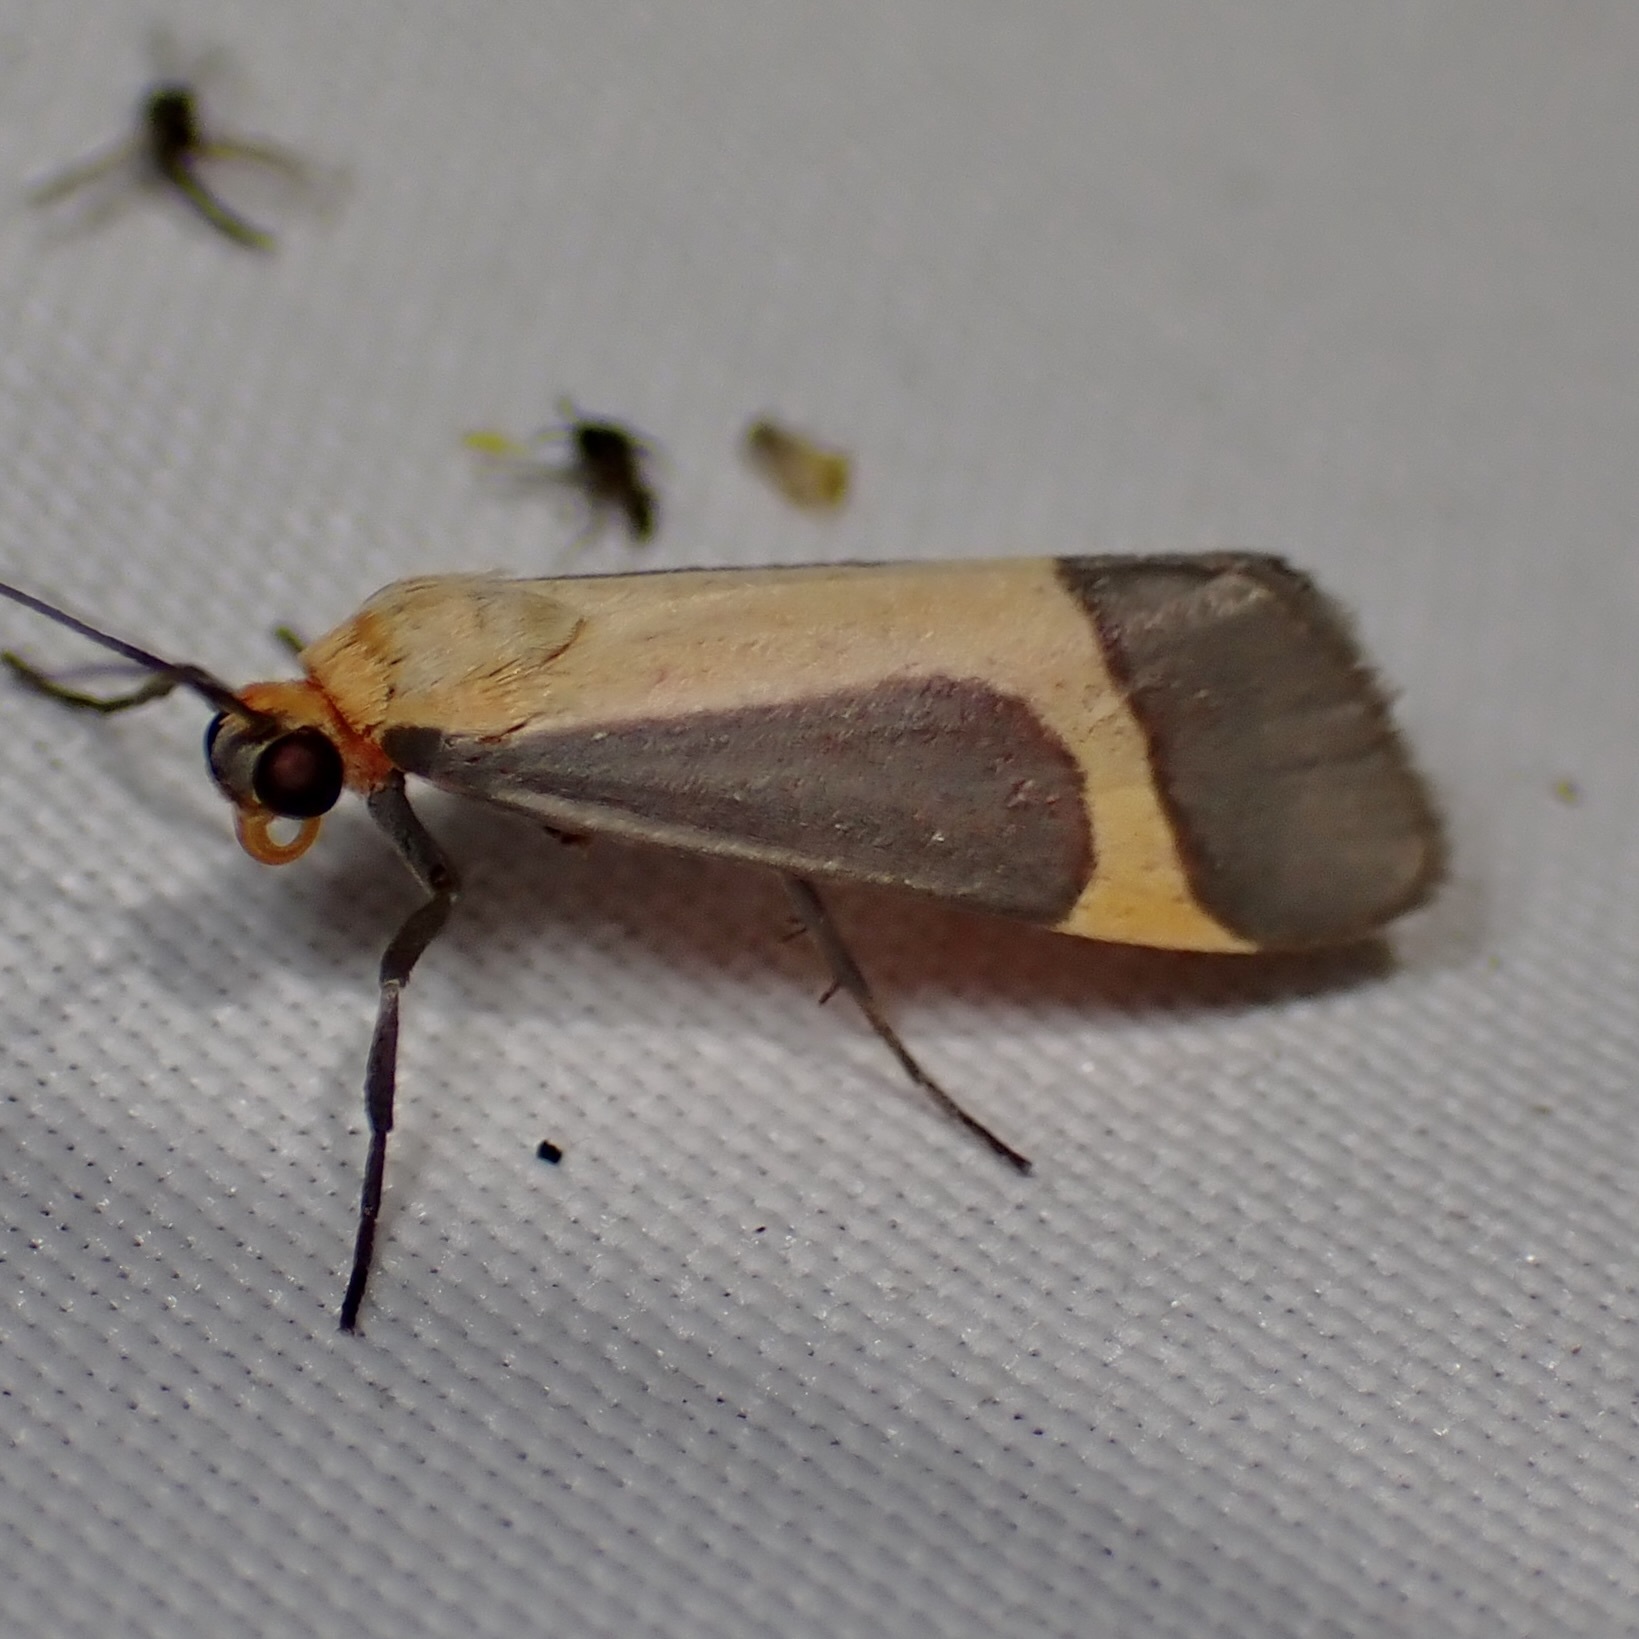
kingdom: Animalia
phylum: Arthropoda
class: Insecta
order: Lepidoptera
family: Erebidae
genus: Cisthene
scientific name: Cisthene angelus
